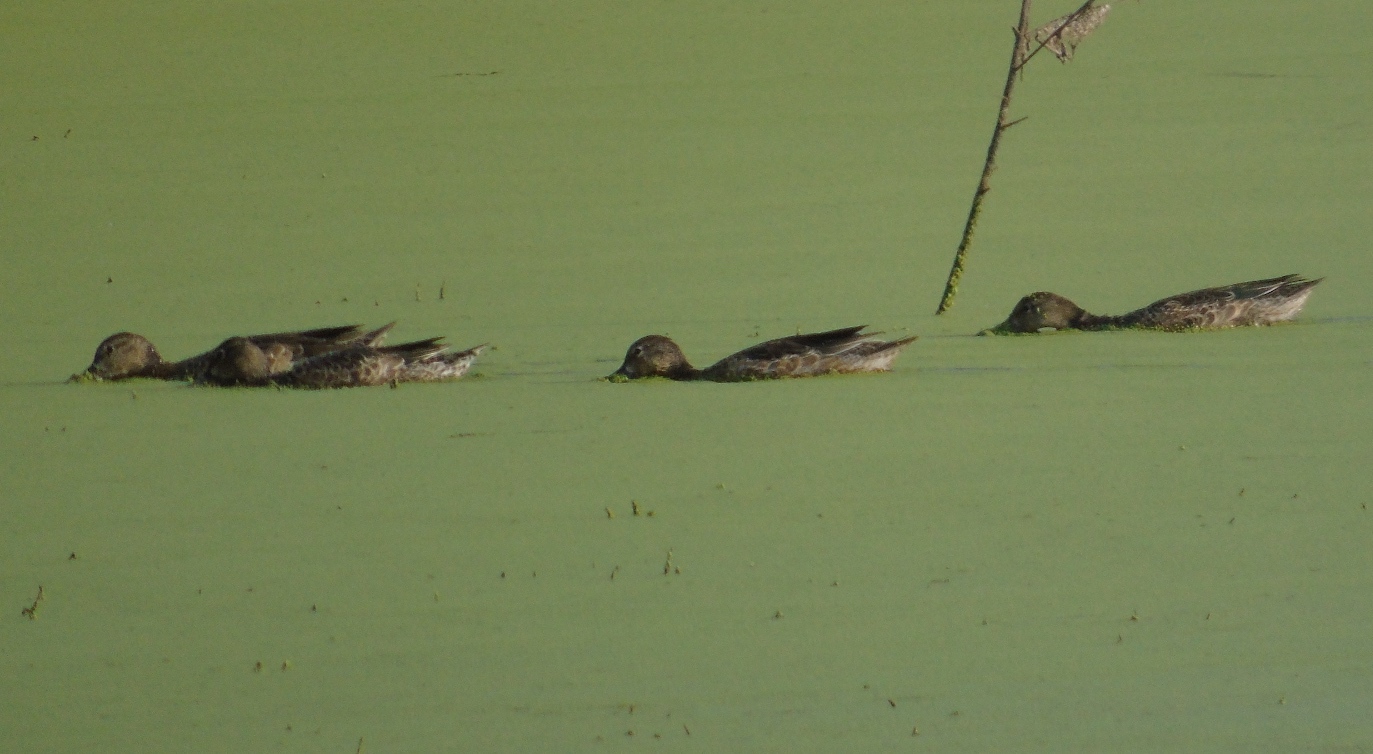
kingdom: Animalia
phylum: Chordata
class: Aves
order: Anseriformes
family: Anatidae
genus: Spatula
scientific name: Spatula discors
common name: Blue-winged teal
